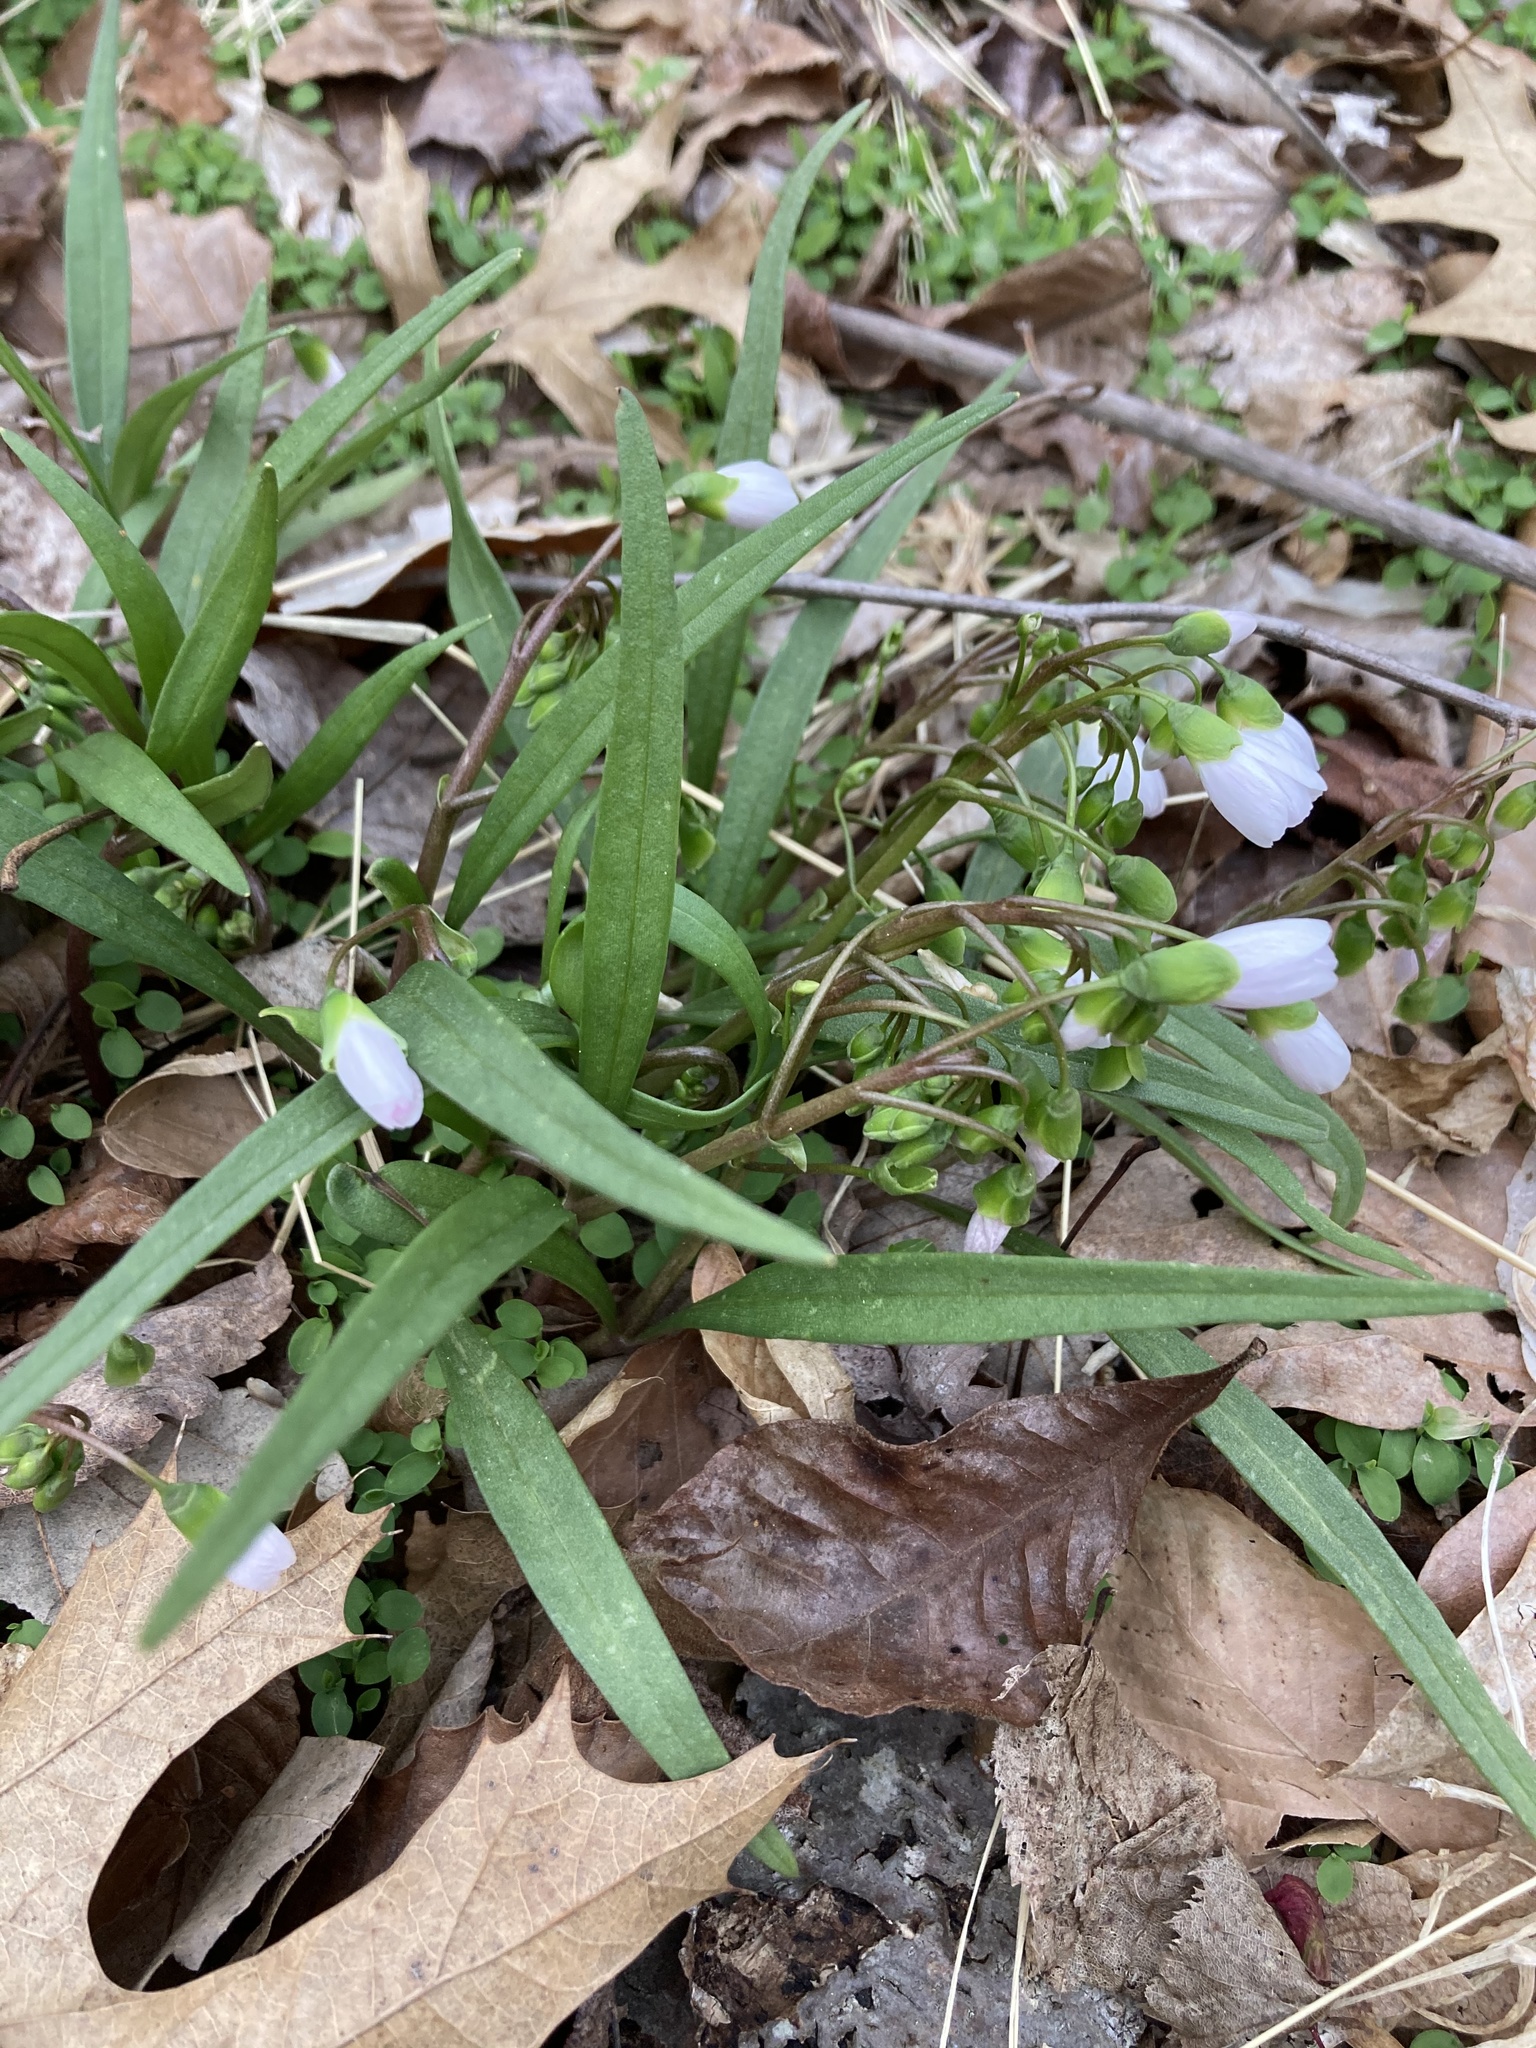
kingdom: Plantae
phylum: Tracheophyta
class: Magnoliopsida
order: Caryophyllales
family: Montiaceae
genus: Claytonia
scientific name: Claytonia virginica
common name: Virginia springbeauty
